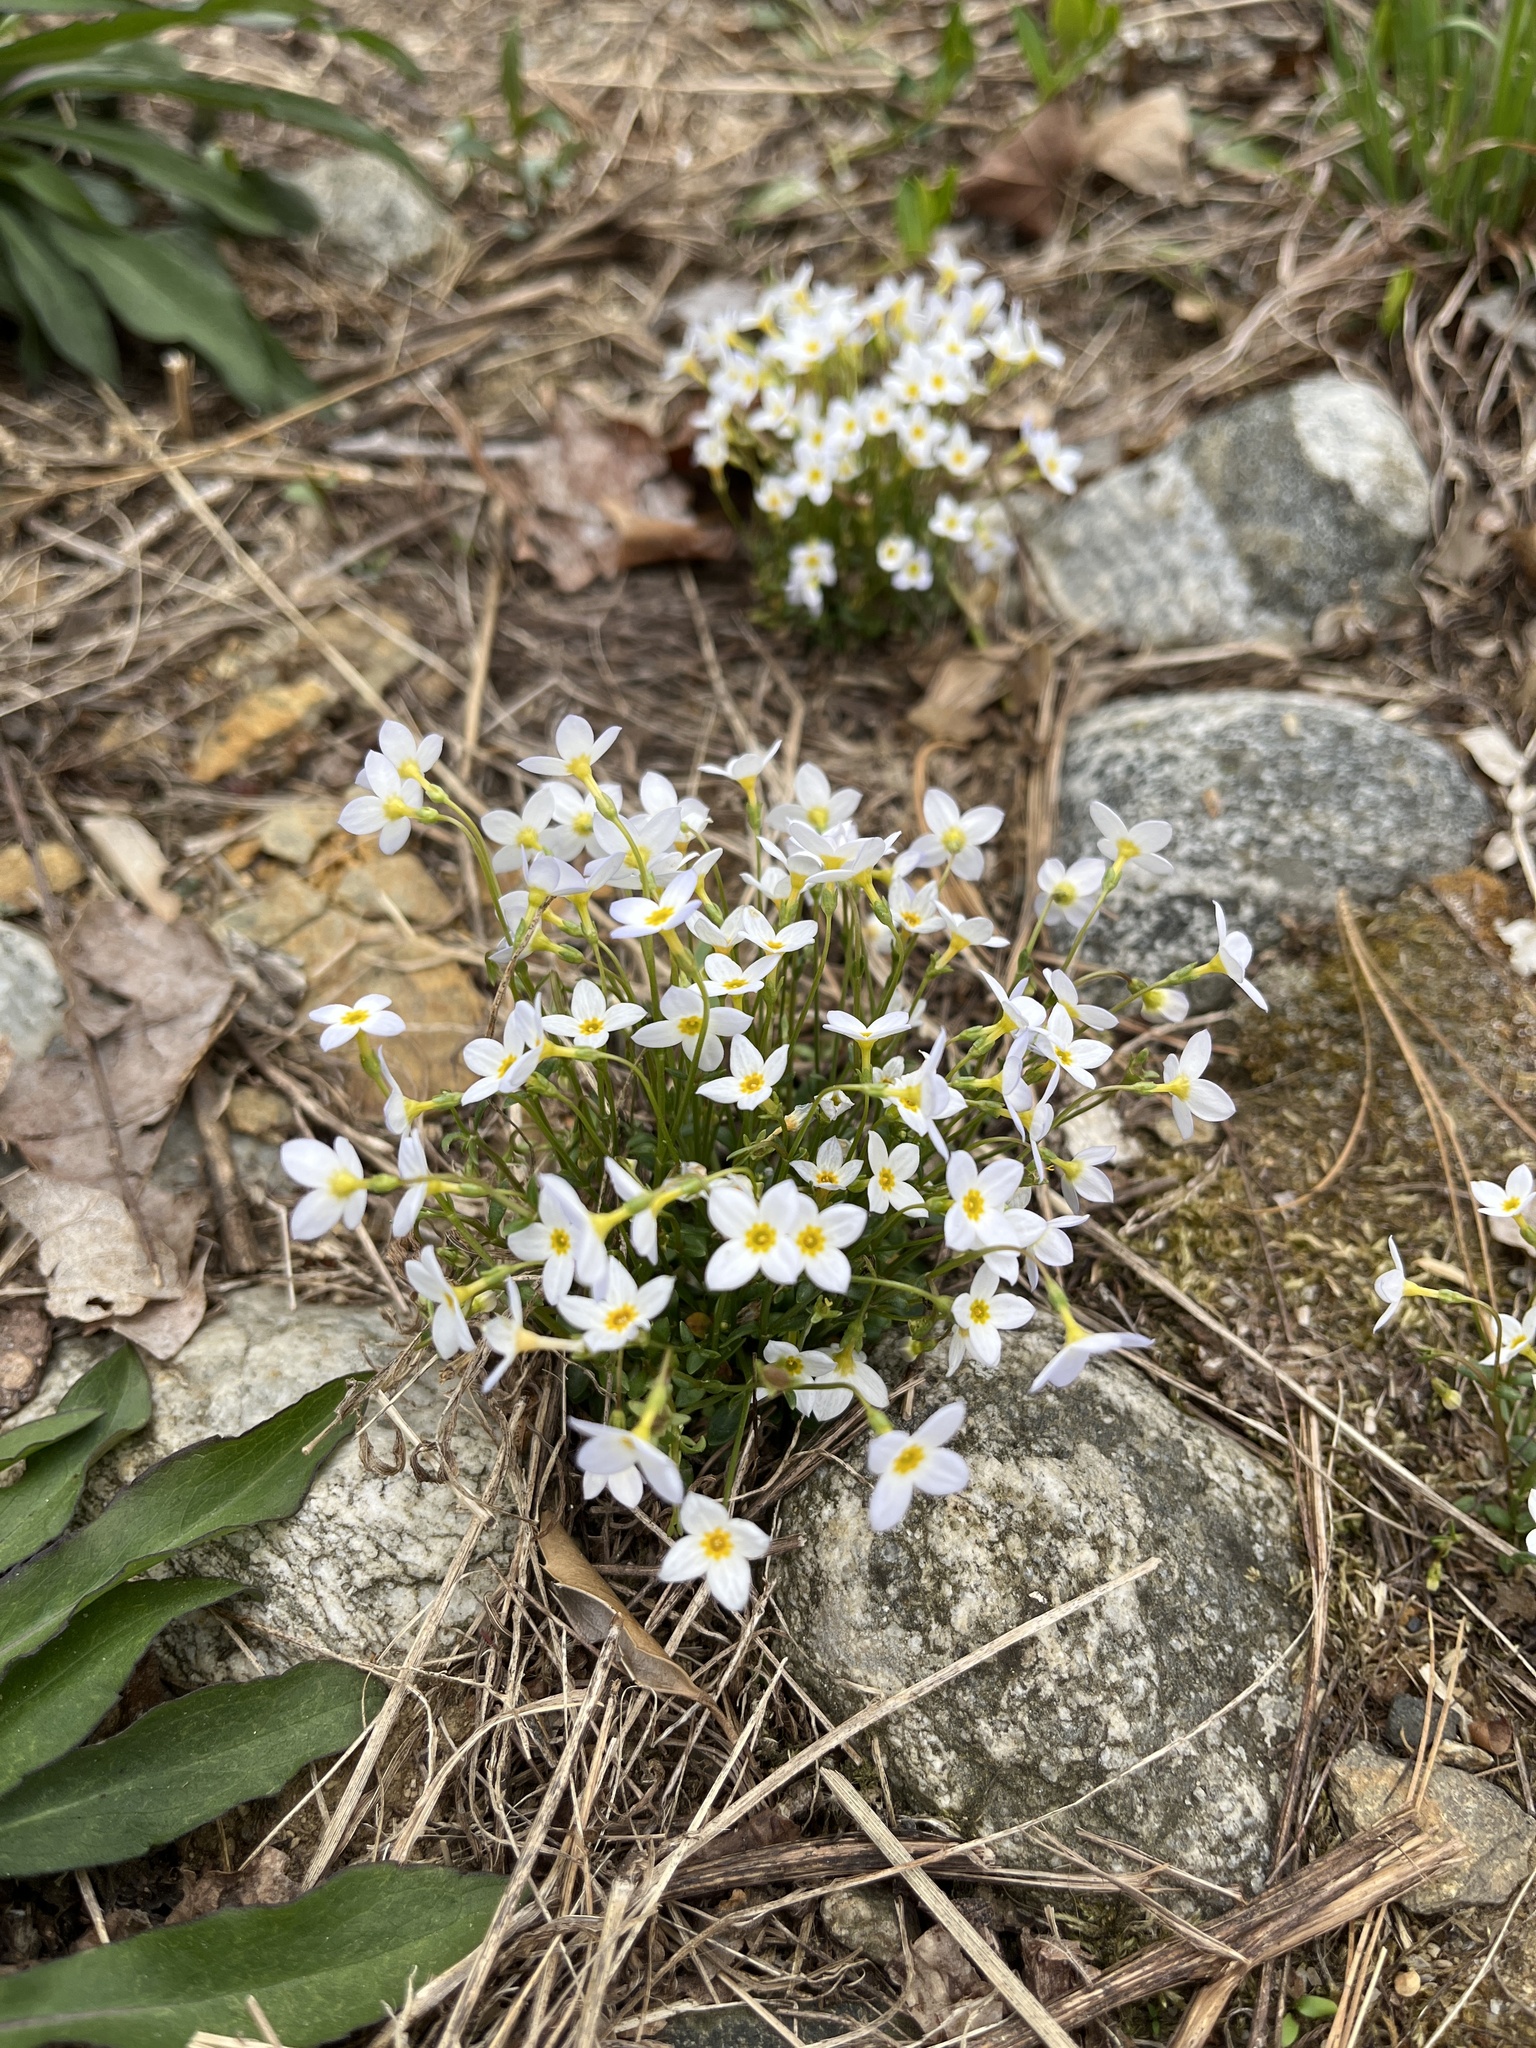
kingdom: Plantae
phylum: Tracheophyta
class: Magnoliopsida
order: Gentianales
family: Rubiaceae
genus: Houstonia
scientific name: Houstonia caerulea
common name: Bluets
